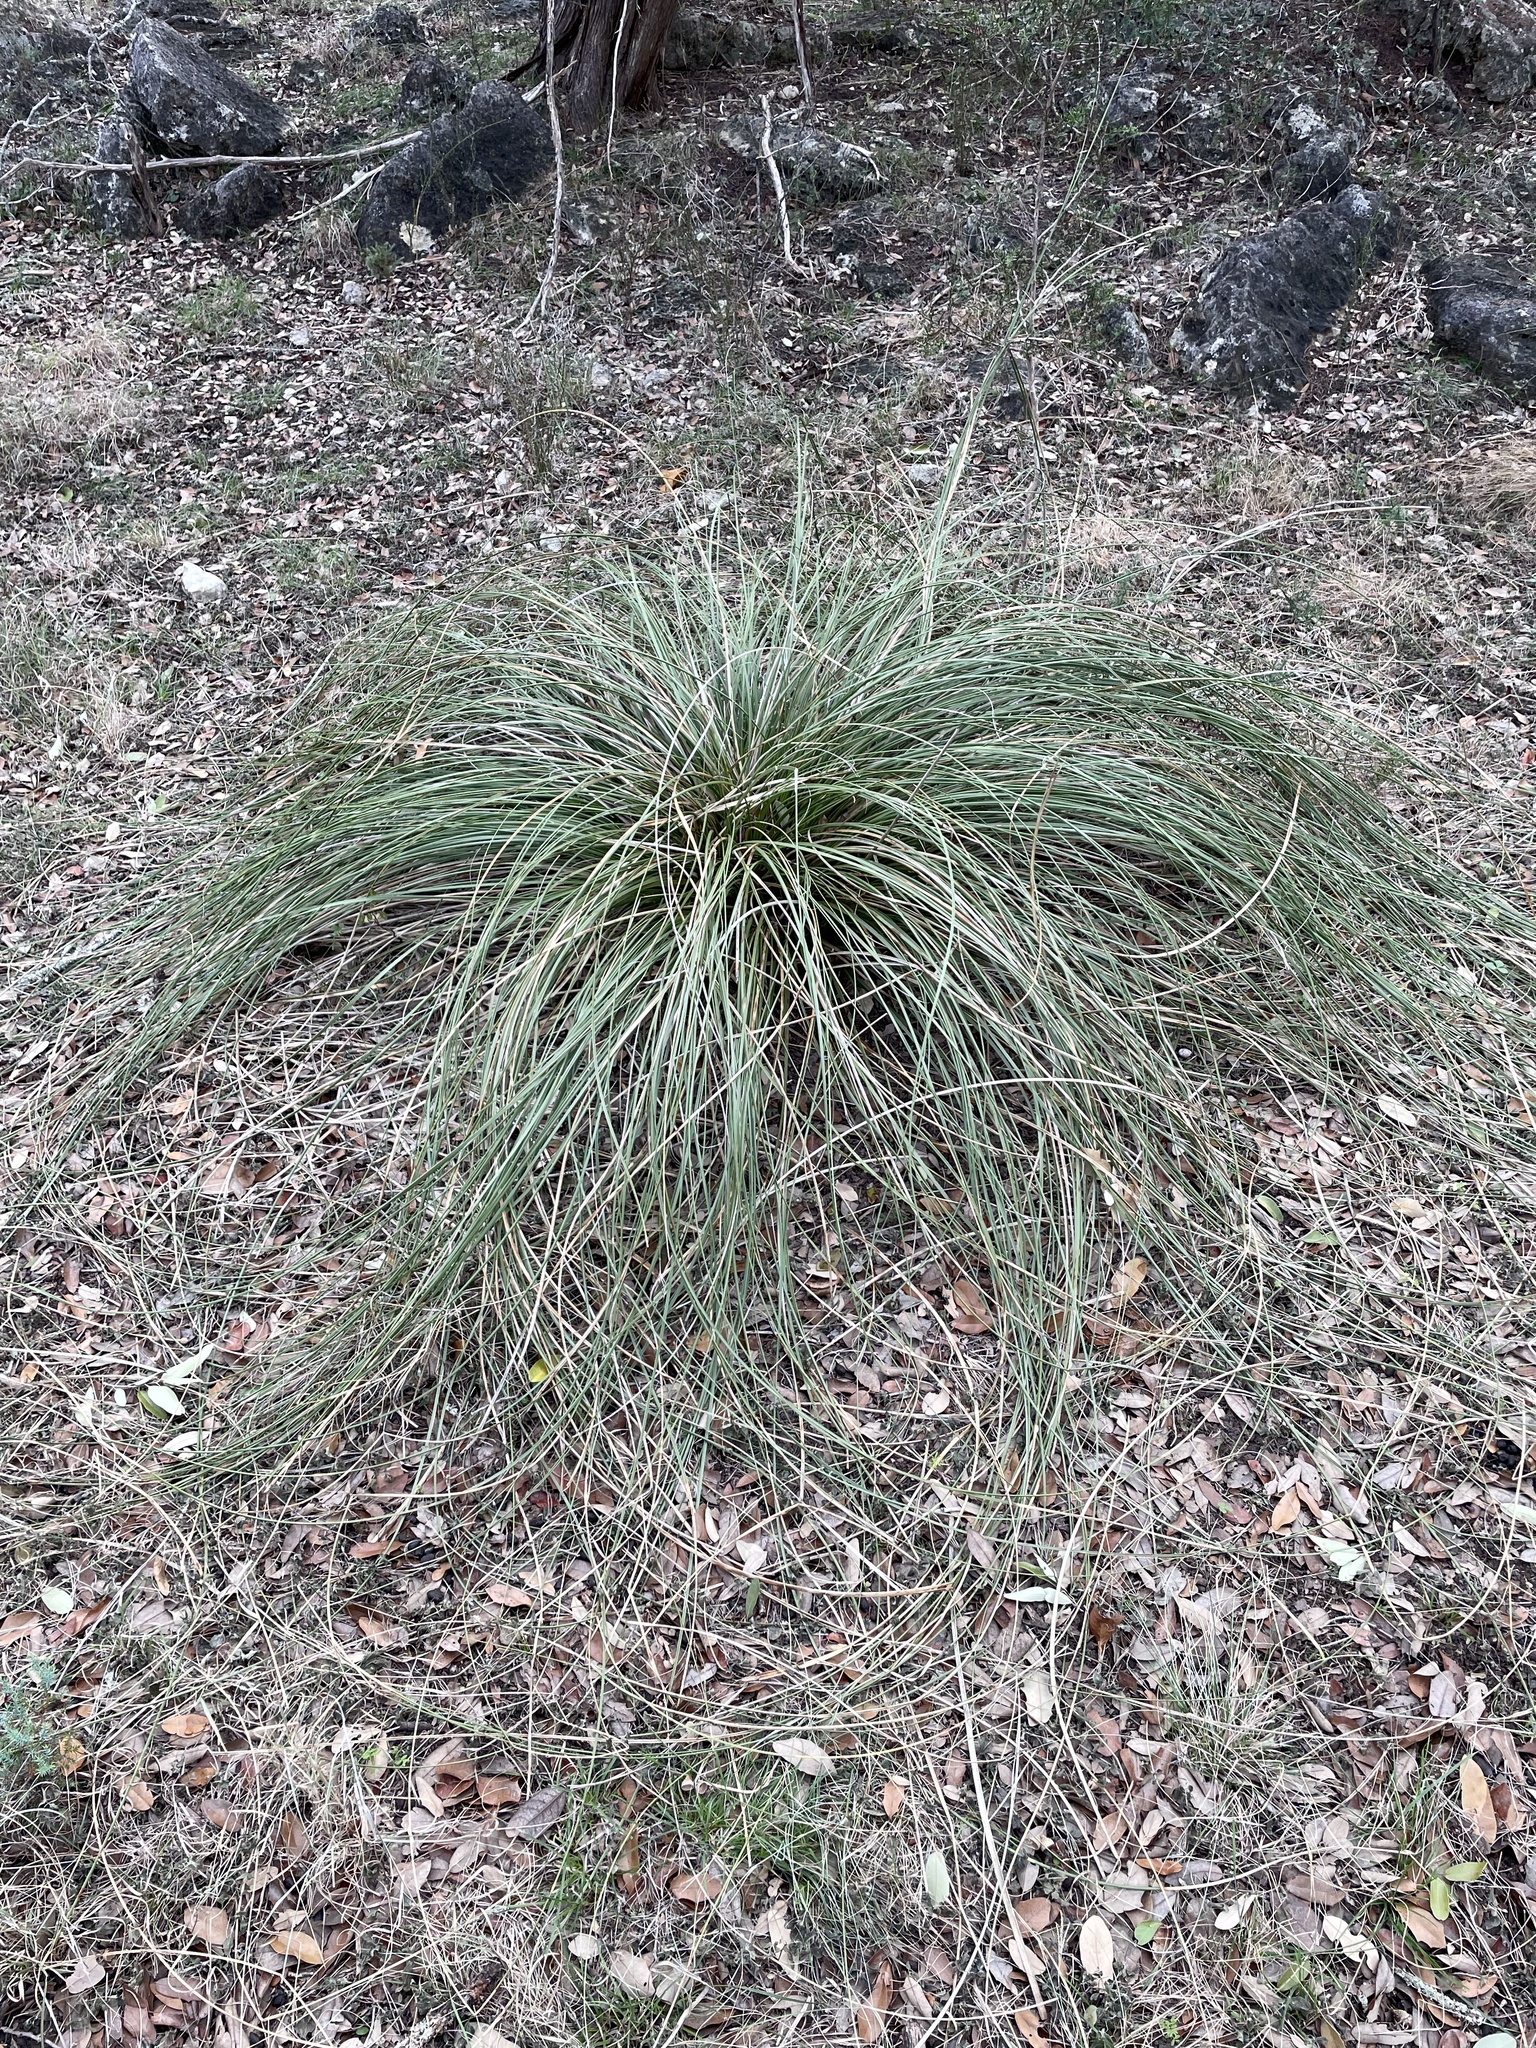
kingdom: Plantae
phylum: Tracheophyta
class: Liliopsida
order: Asparagales
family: Asparagaceae
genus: Nolina
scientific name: Nolina texana
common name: Texas sacahuiste
